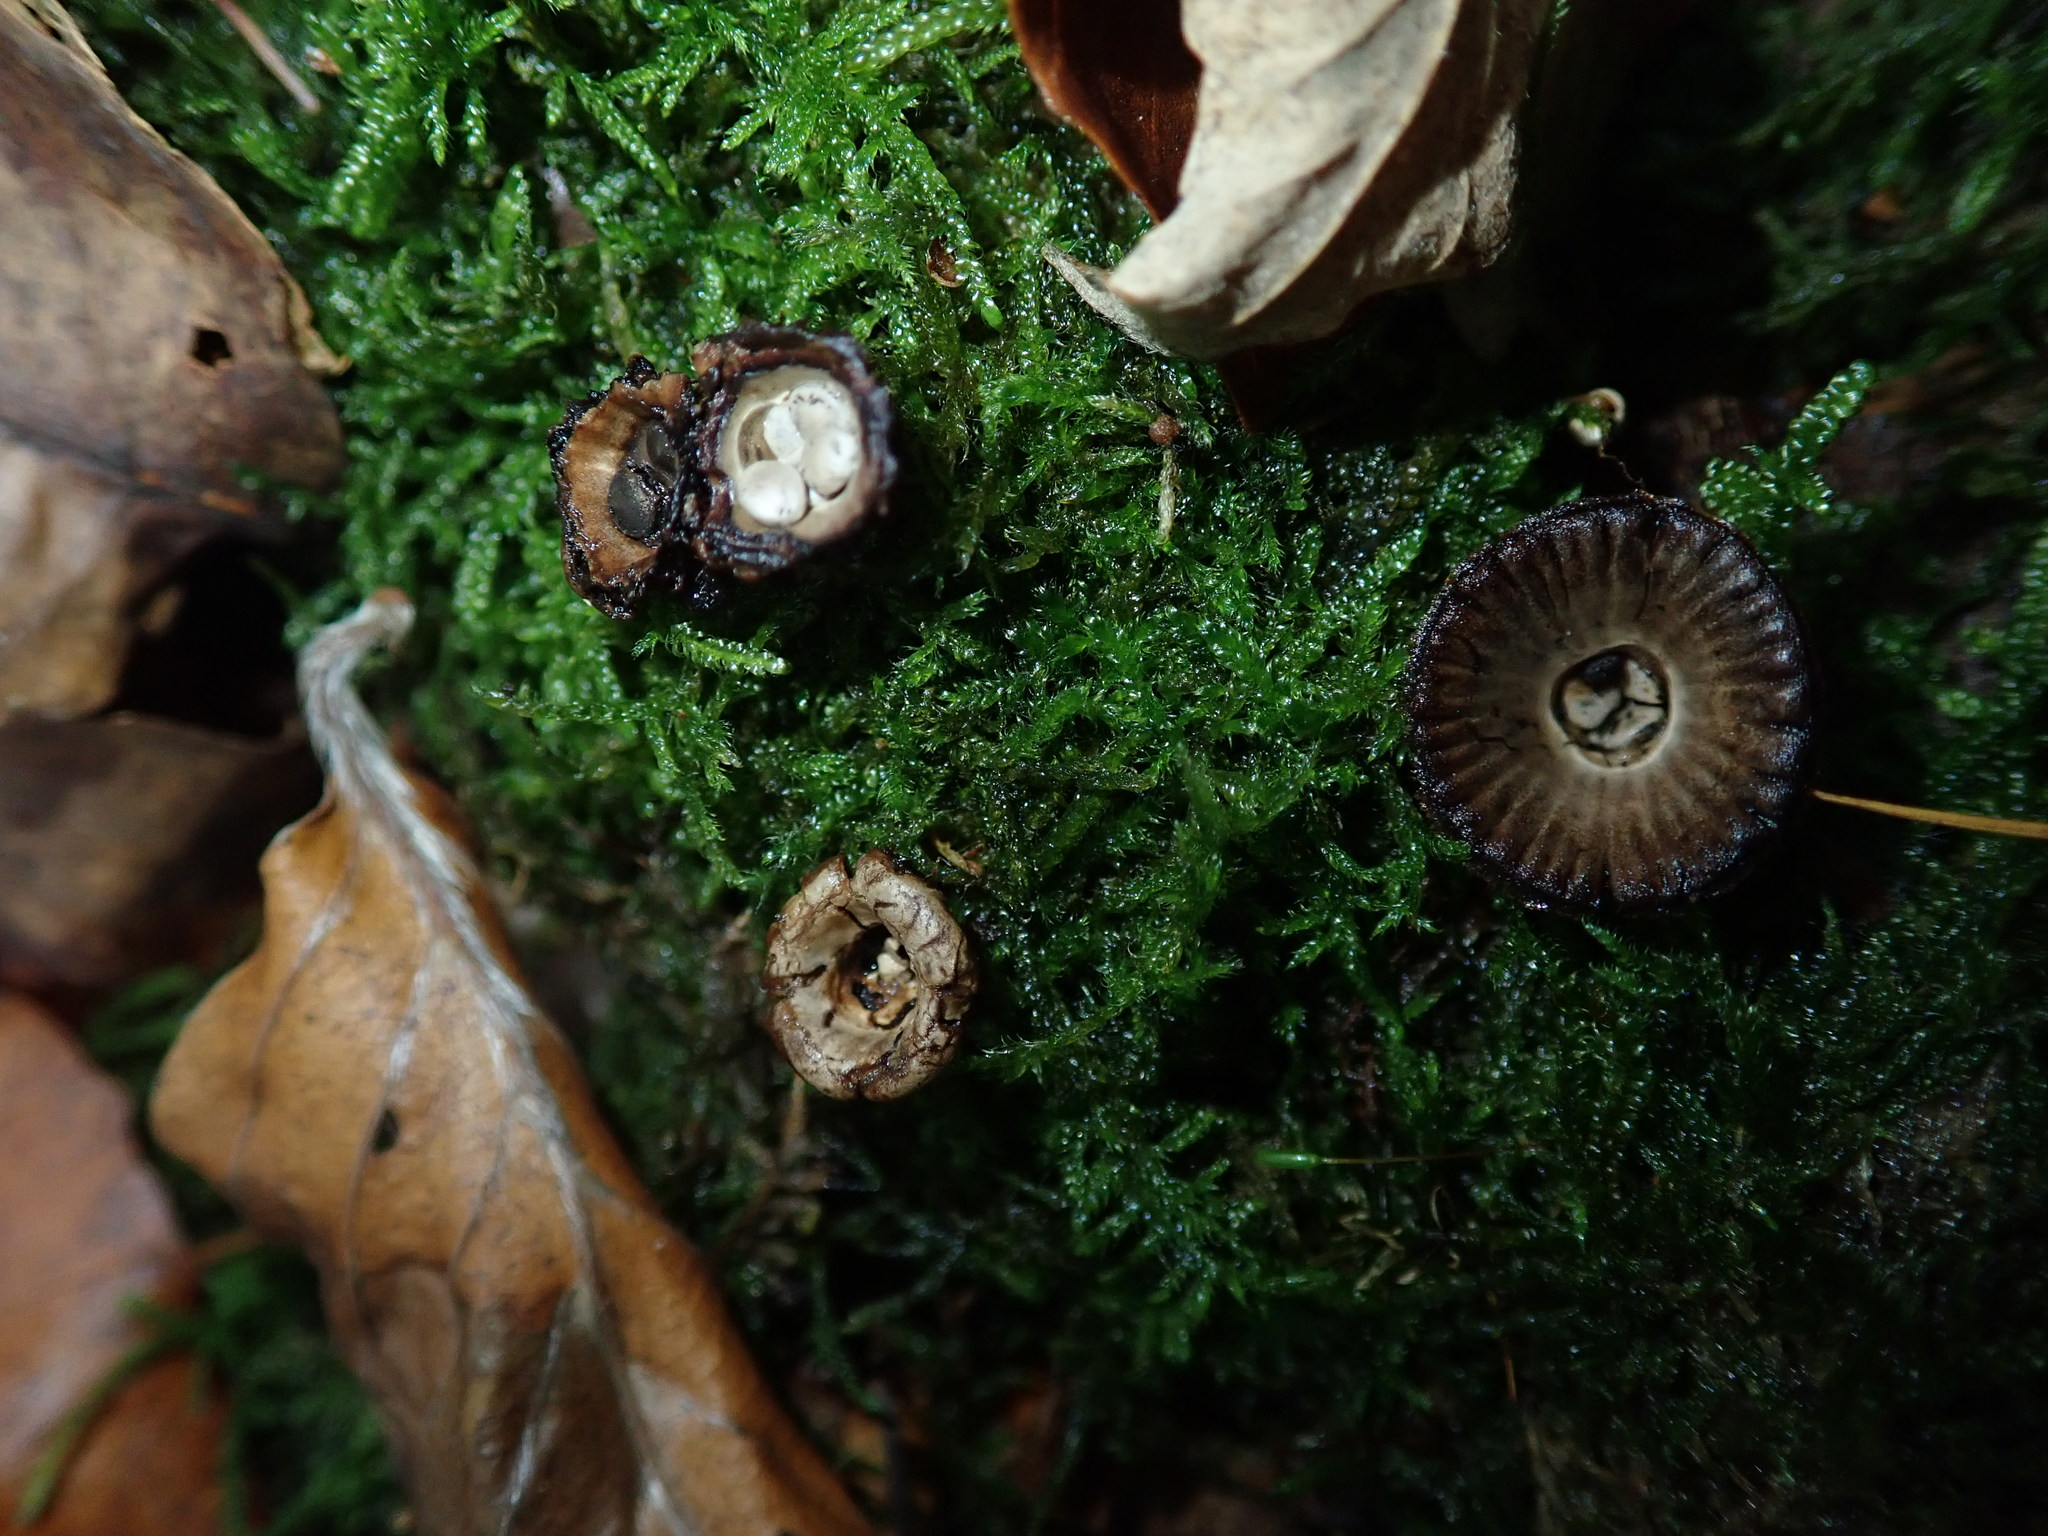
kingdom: Fungi
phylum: Basidiomycota
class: Agaricomycetes
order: Agaricales
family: Agaricaceae
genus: Cyathus
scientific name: Cyathus striatus
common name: Fluted bird's nest
